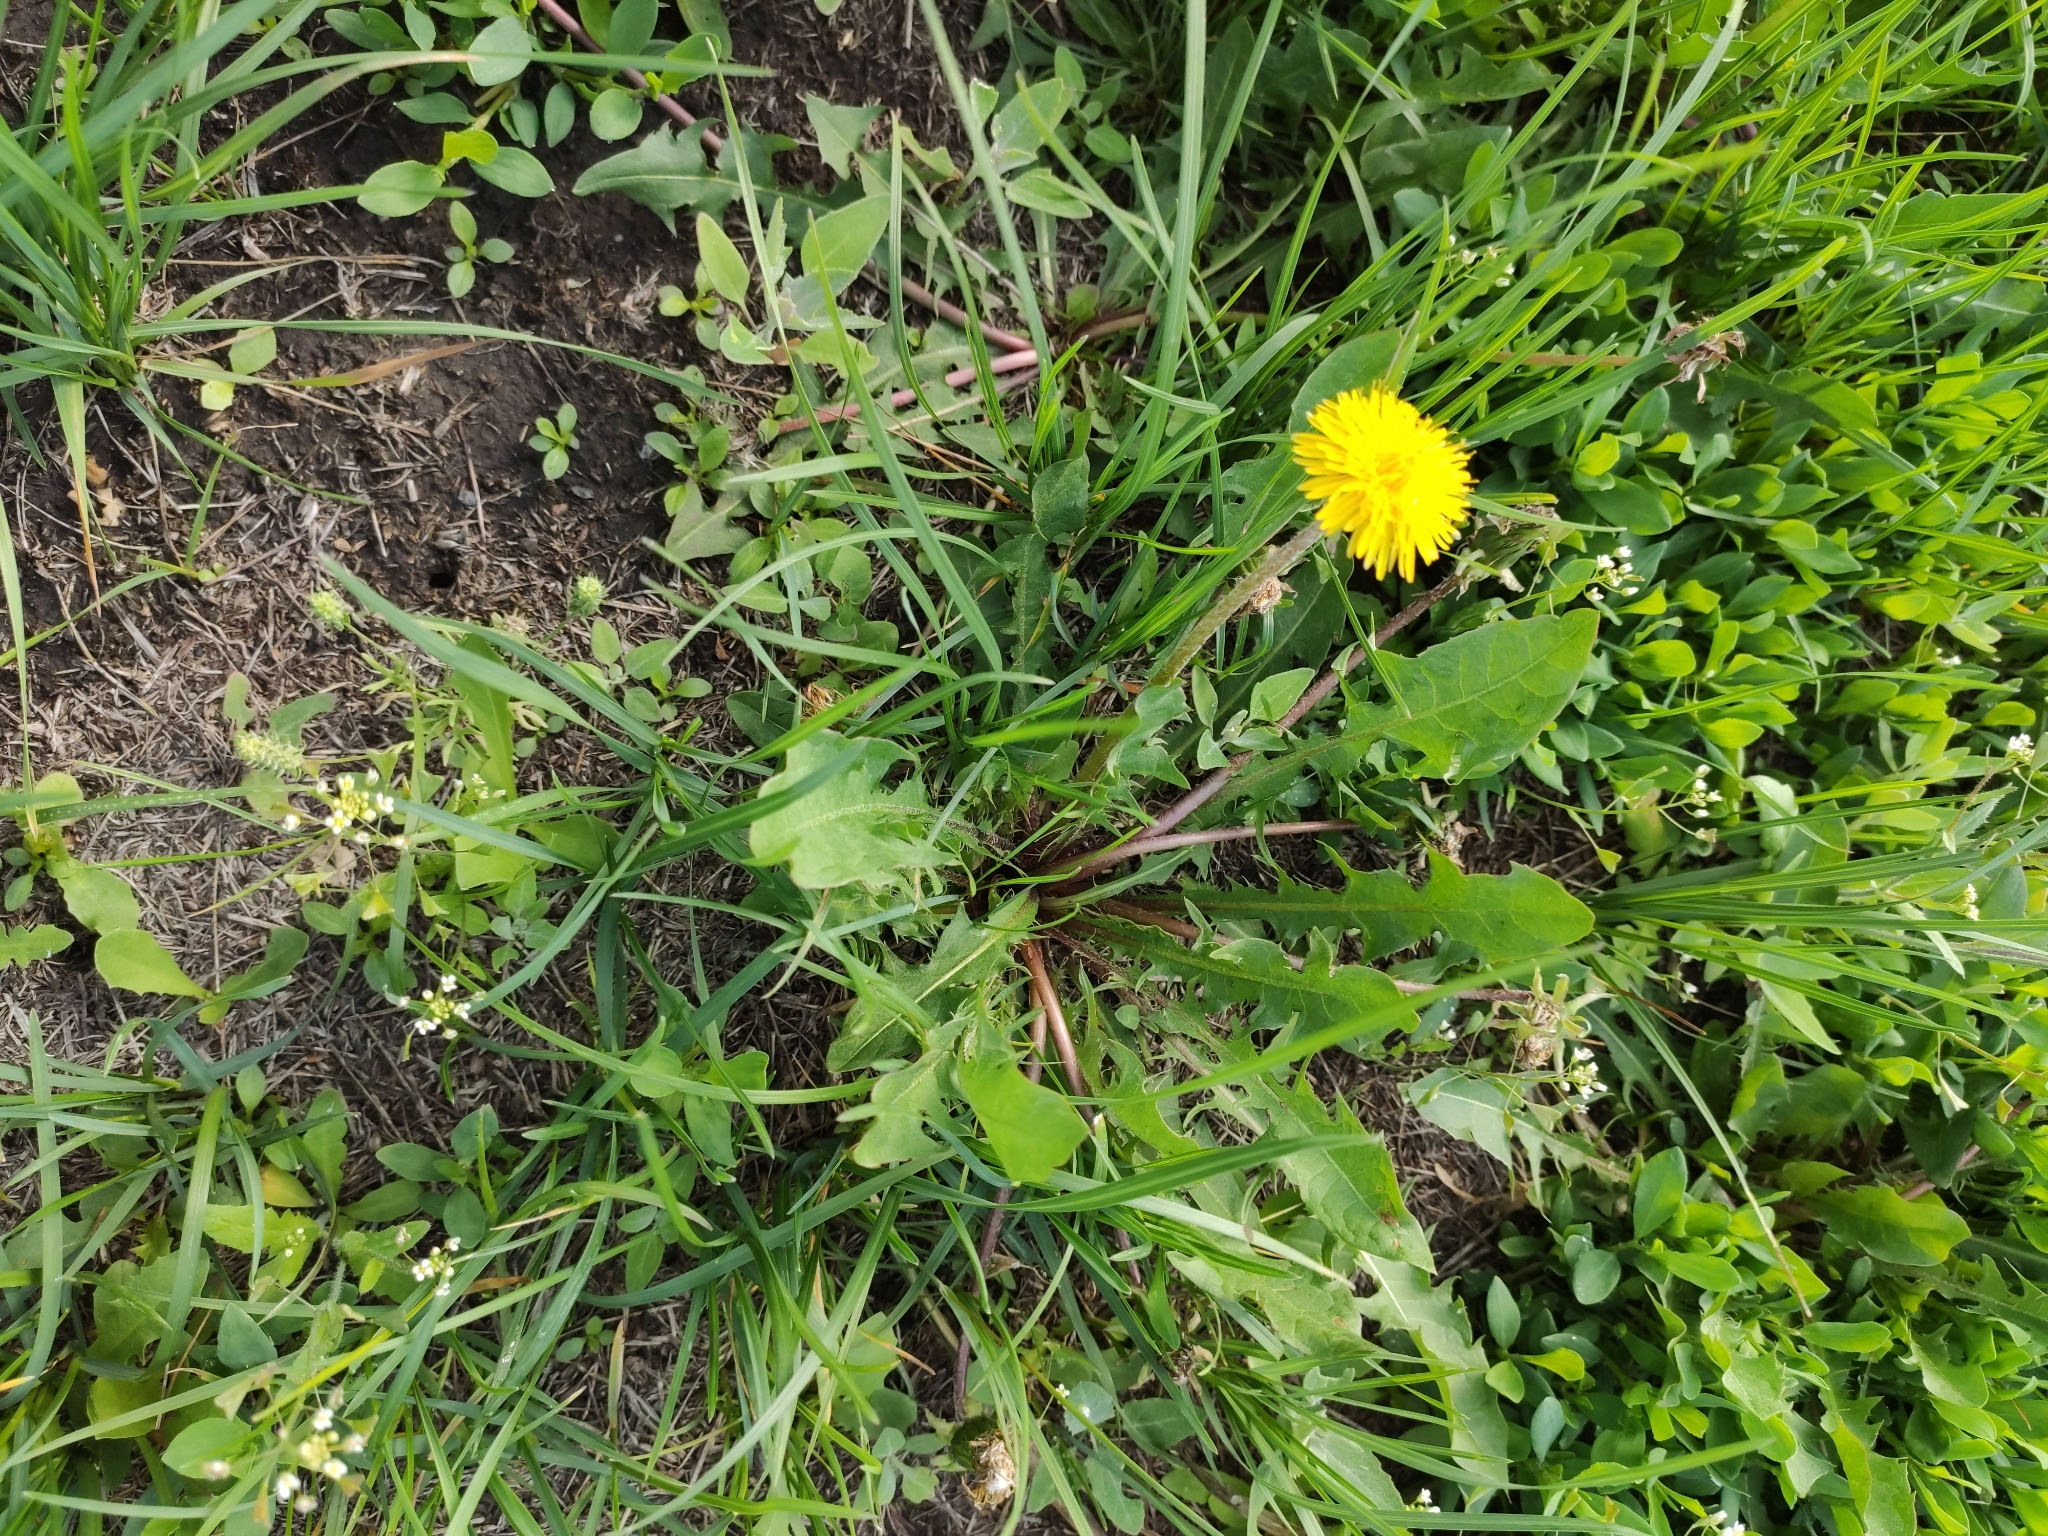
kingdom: Plantae
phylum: Tracheophyta
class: Magnoliopsida
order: Asterales
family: Asteraceae
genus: Taraxacum
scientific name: Taraxacum officinale
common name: Common dandelion
